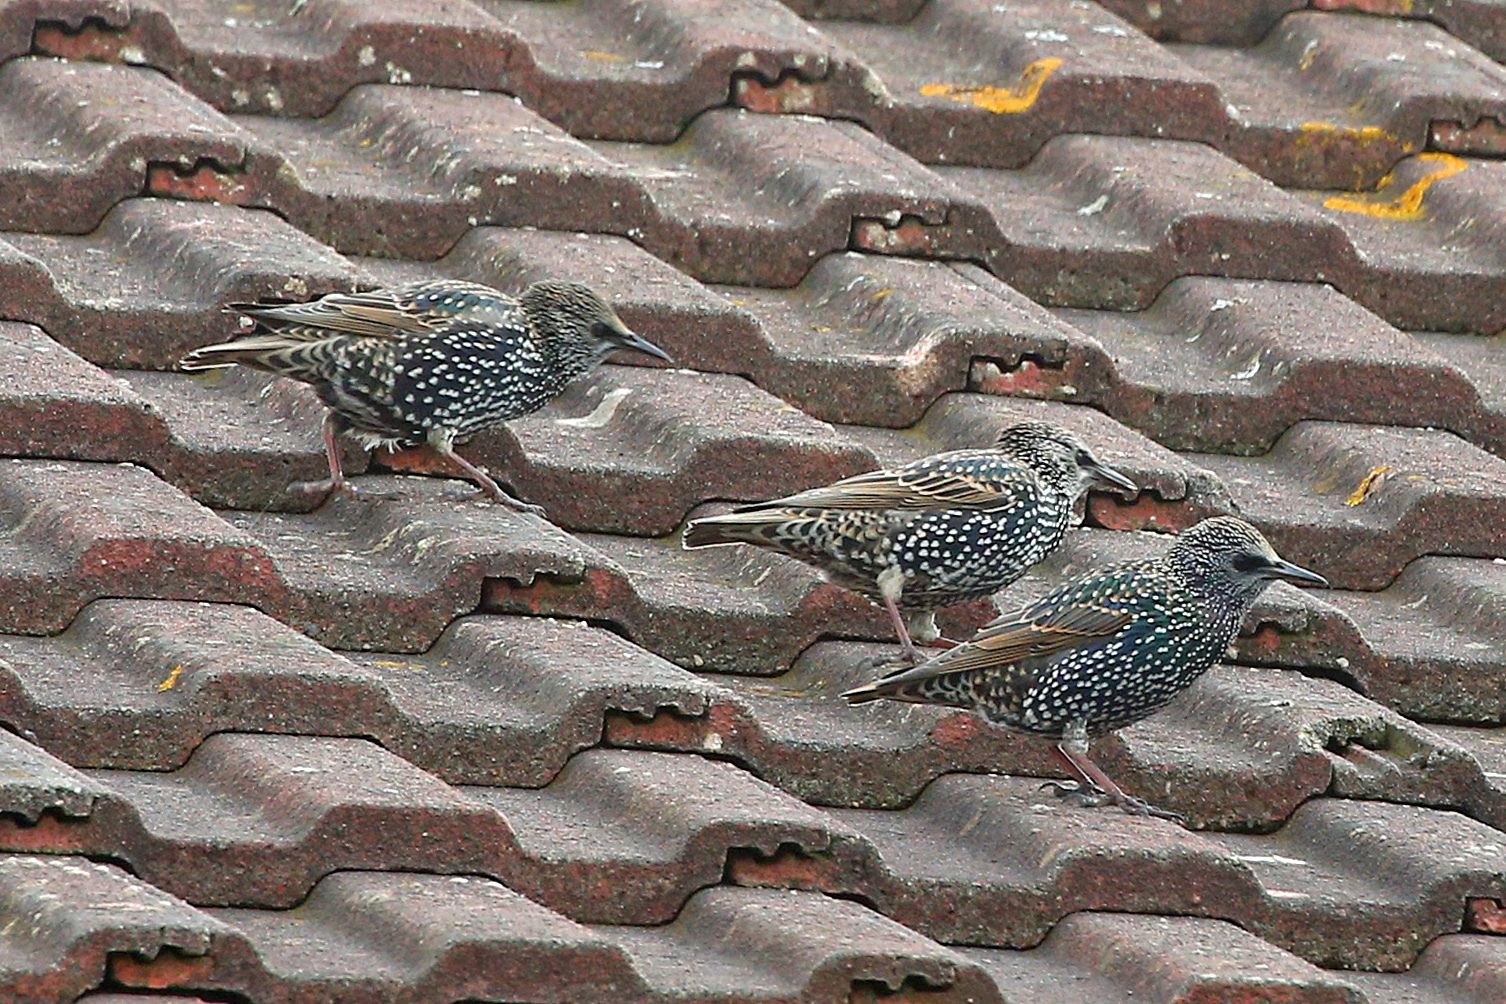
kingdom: Animalia
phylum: Chordata
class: Aves
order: Passeriformes
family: Sturnidae
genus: Sturnus
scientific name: Sturnus vulgaris
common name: Common starling
